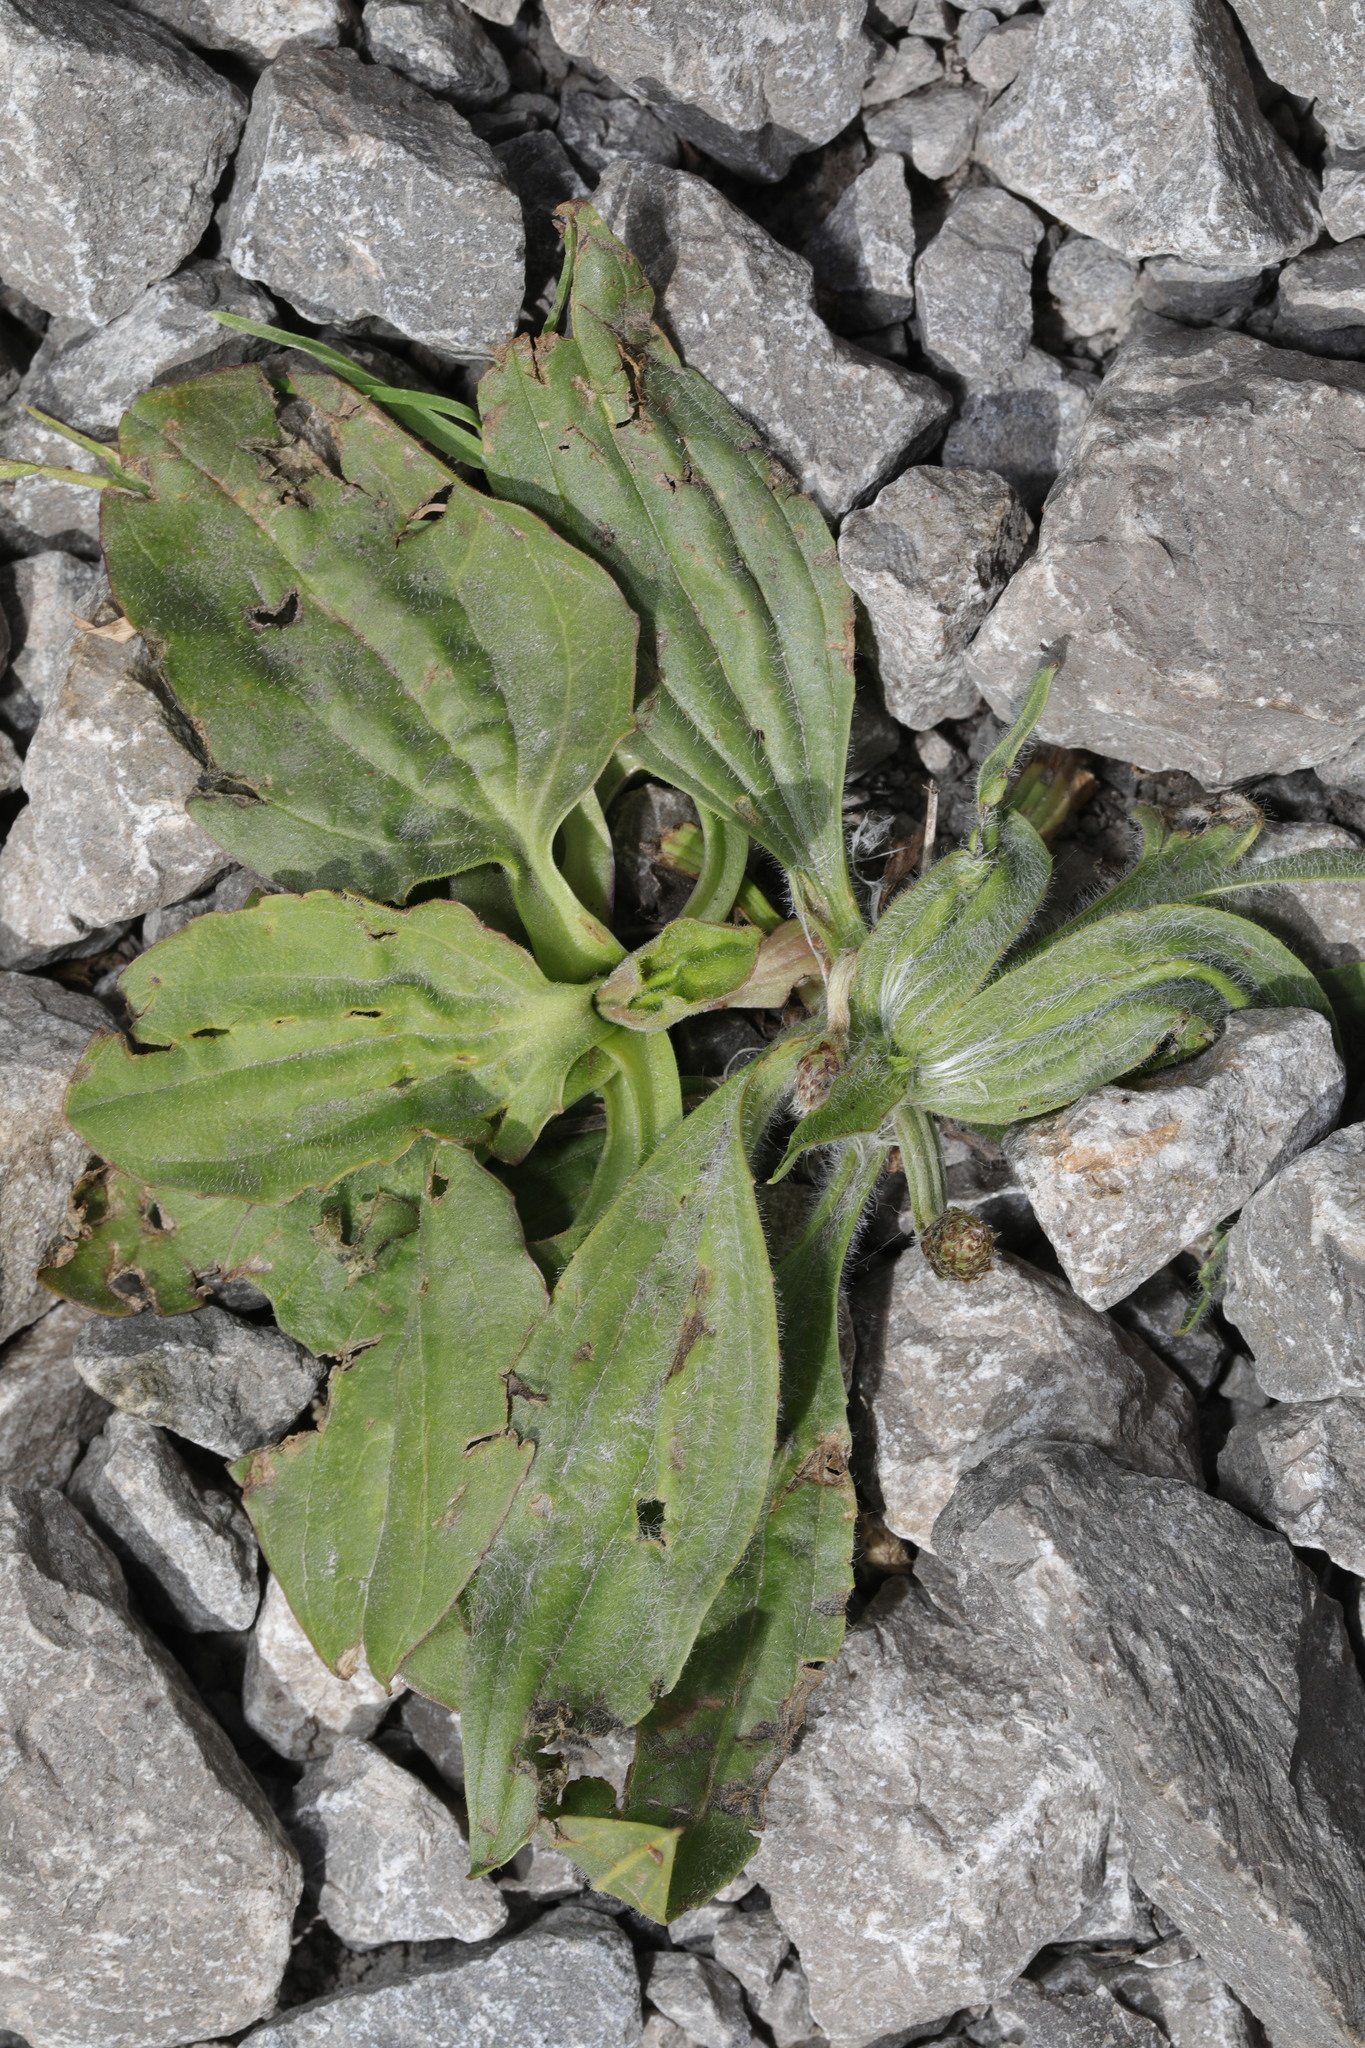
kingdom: Plantae
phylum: Tracheophyta
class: Magnoliopsida
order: Lamiales
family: Plantaginaceae
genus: Plantago
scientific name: Plantago major
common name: Common plantain
